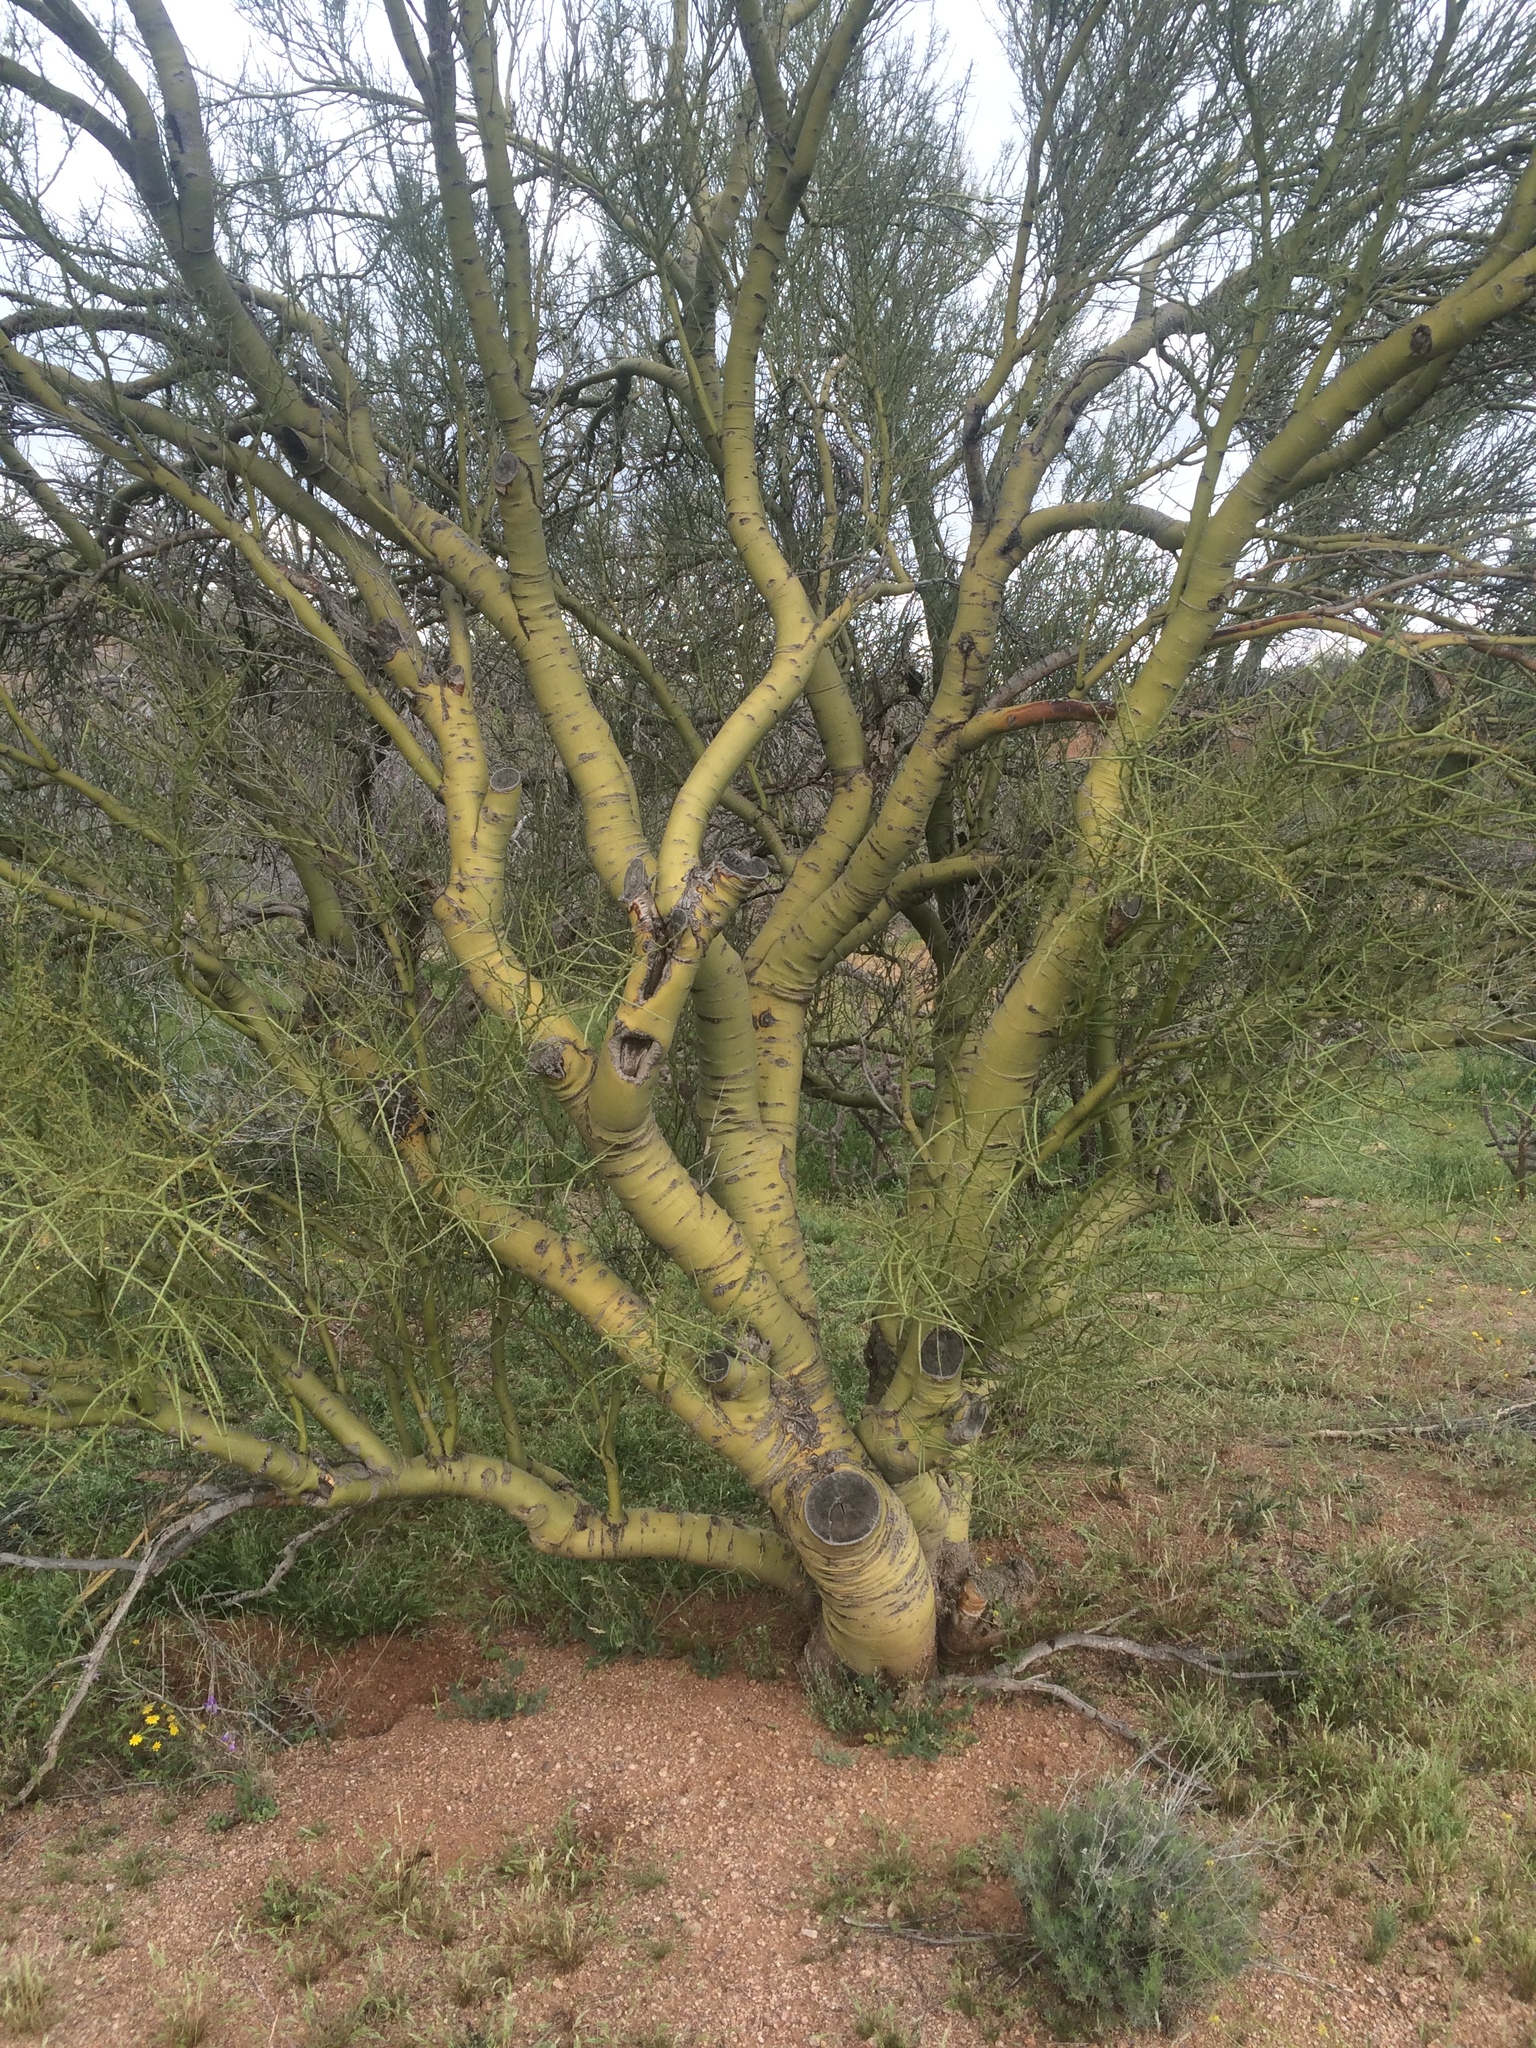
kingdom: Plantae
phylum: Tracheophyta
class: Magnoliopsida
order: Fabales
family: Fabaceae
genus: Parkinsonia
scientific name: Parkinsonia microphylla
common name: Yellow paloverde
